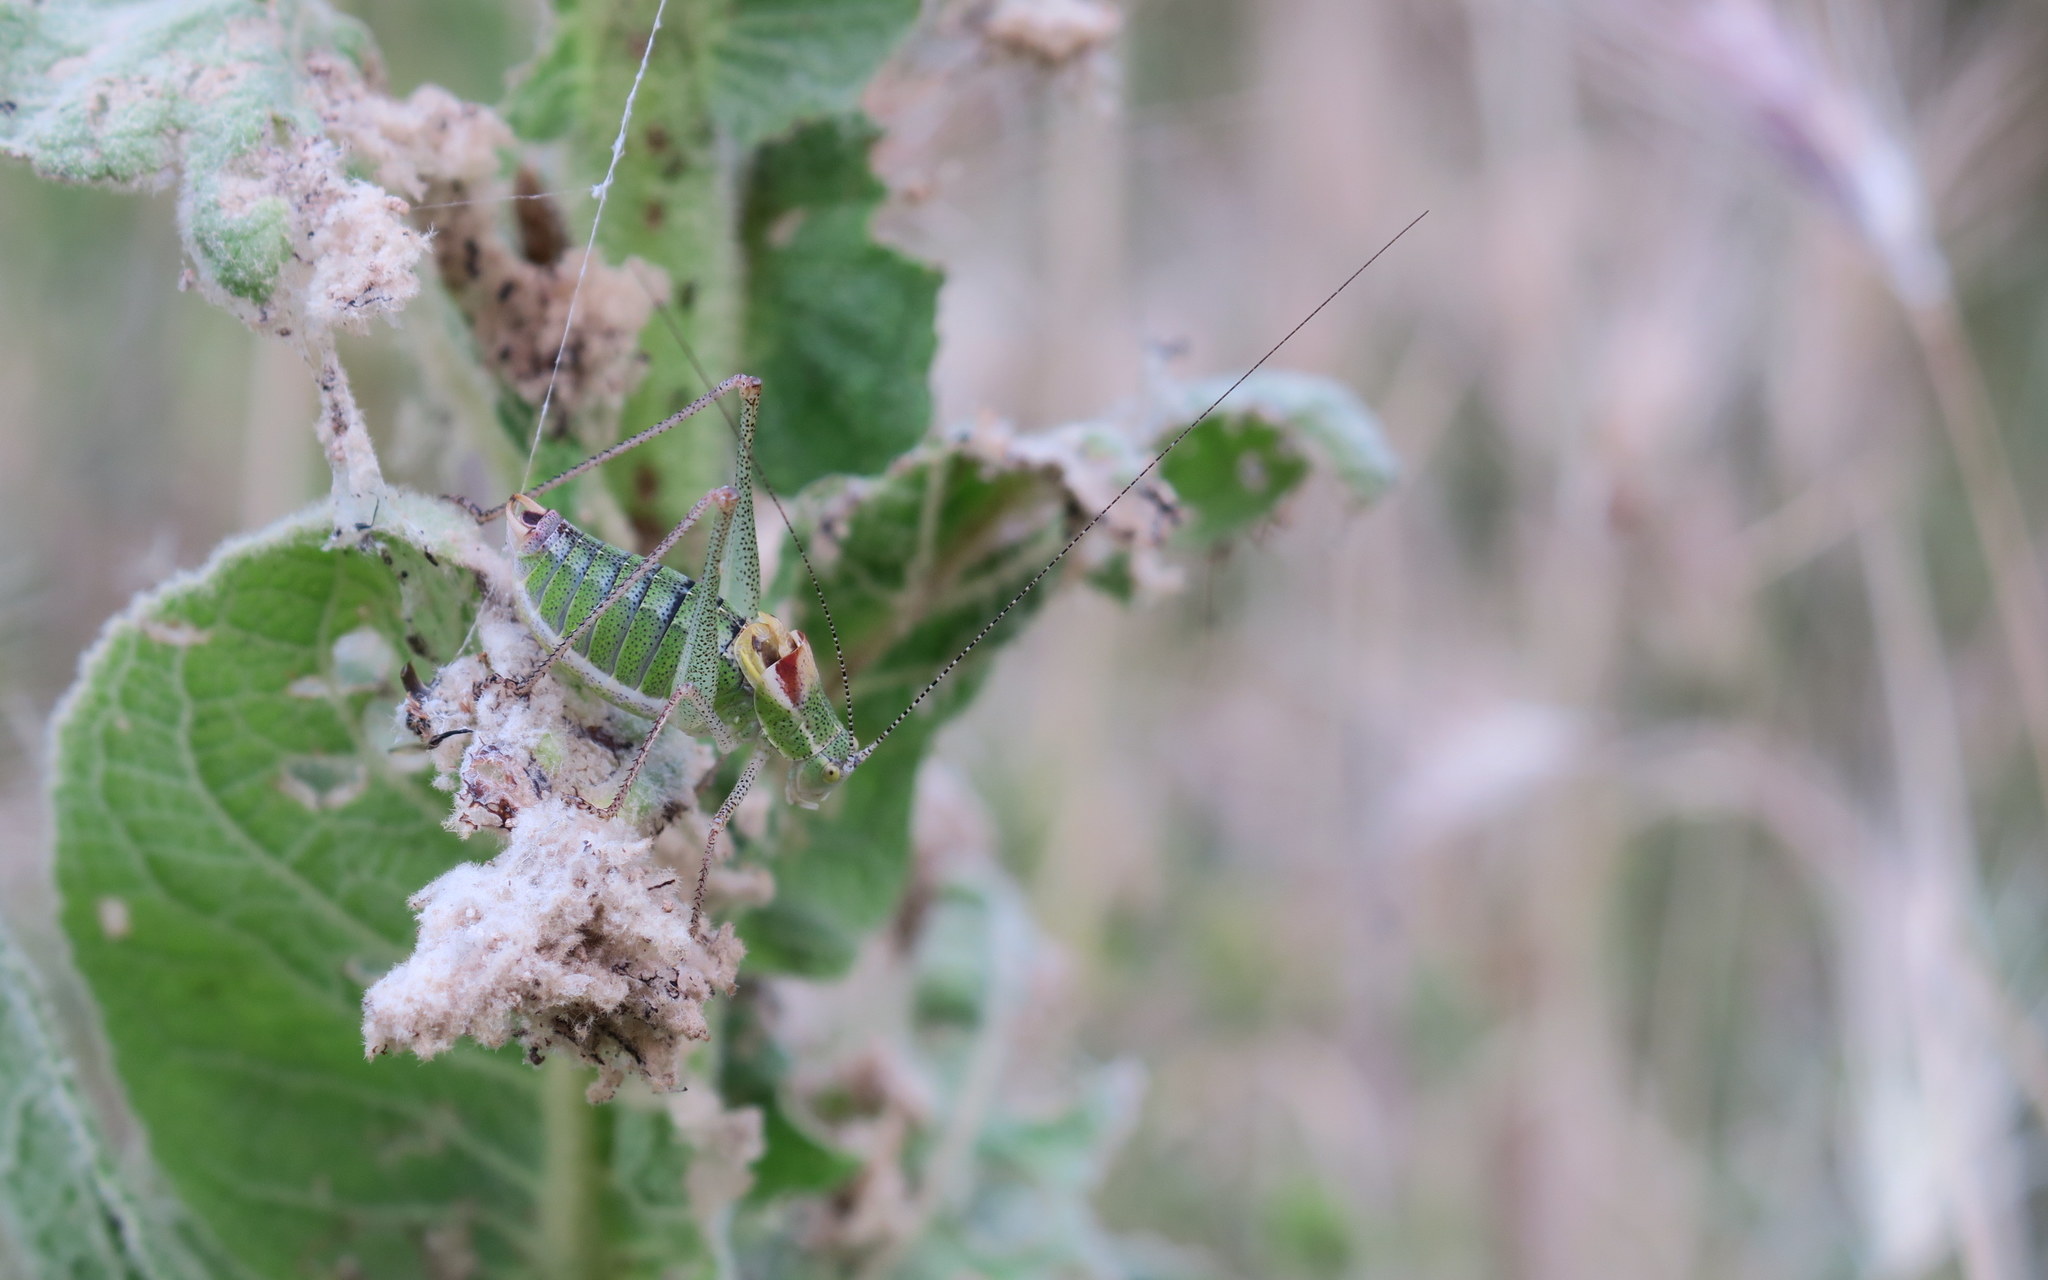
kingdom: Animalia
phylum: Arthropoda
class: Insecta
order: Orthoptera
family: Tettigoniidae
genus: Poecilimon
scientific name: Poecilimon thessalicus
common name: Thessalian bright bush-cricket
